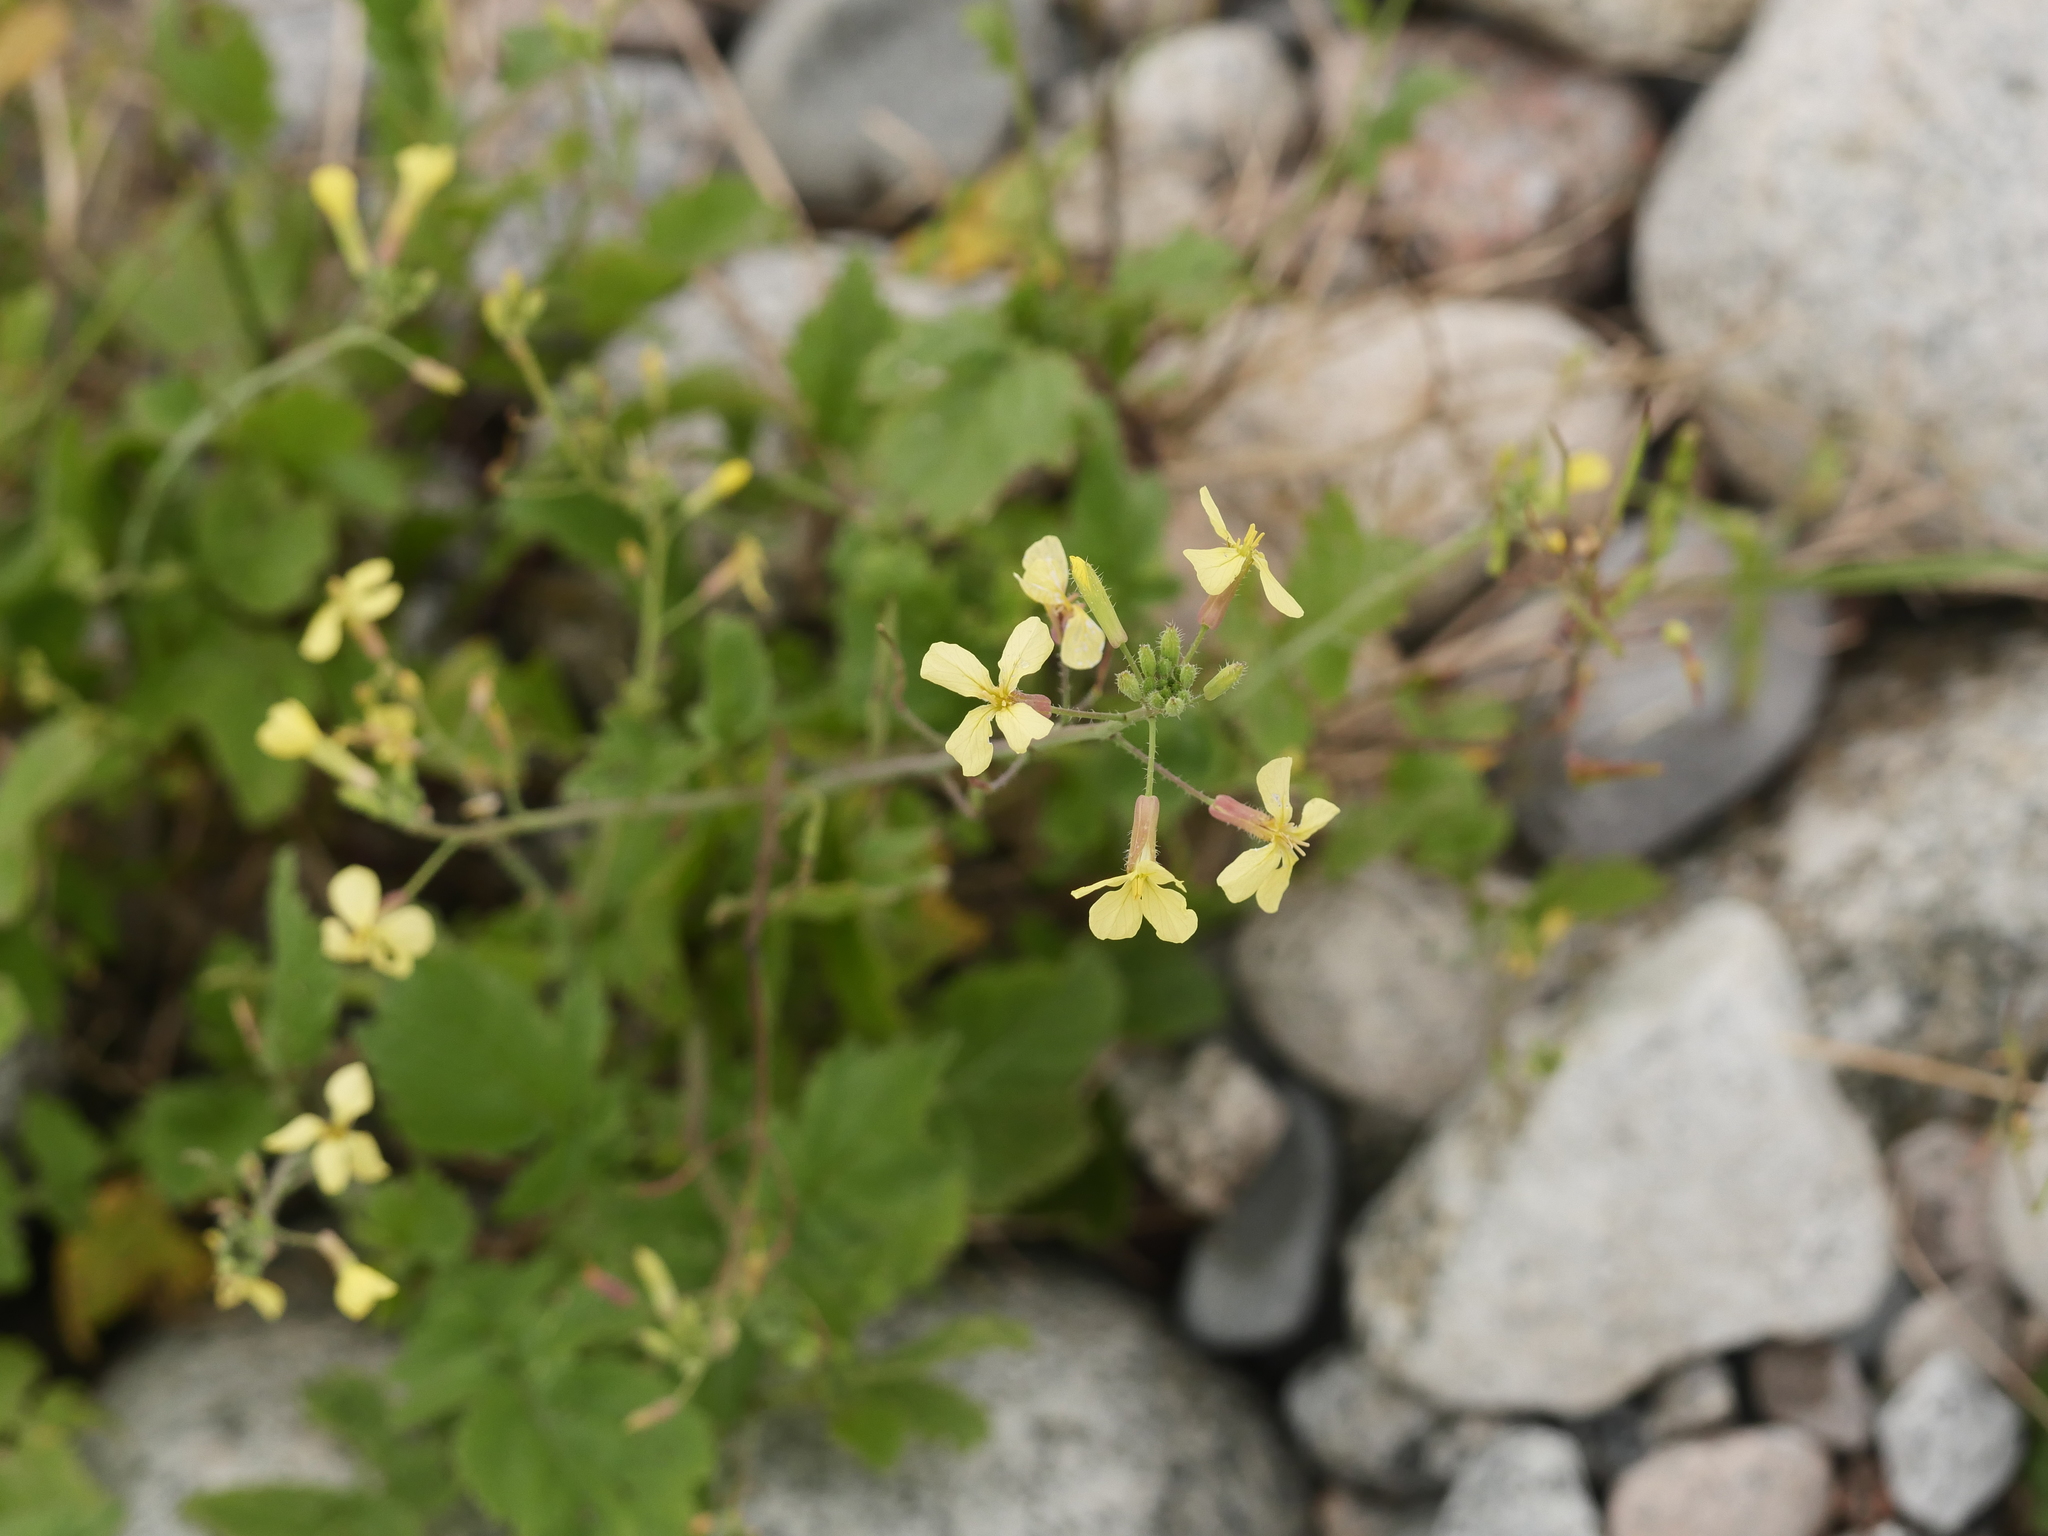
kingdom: Plantae
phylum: Tracheophyta
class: Magnoliopsida
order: Brassicales
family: Brassicaceae
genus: Raphanus
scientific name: Raphanus raphanistrum
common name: Wild radish
